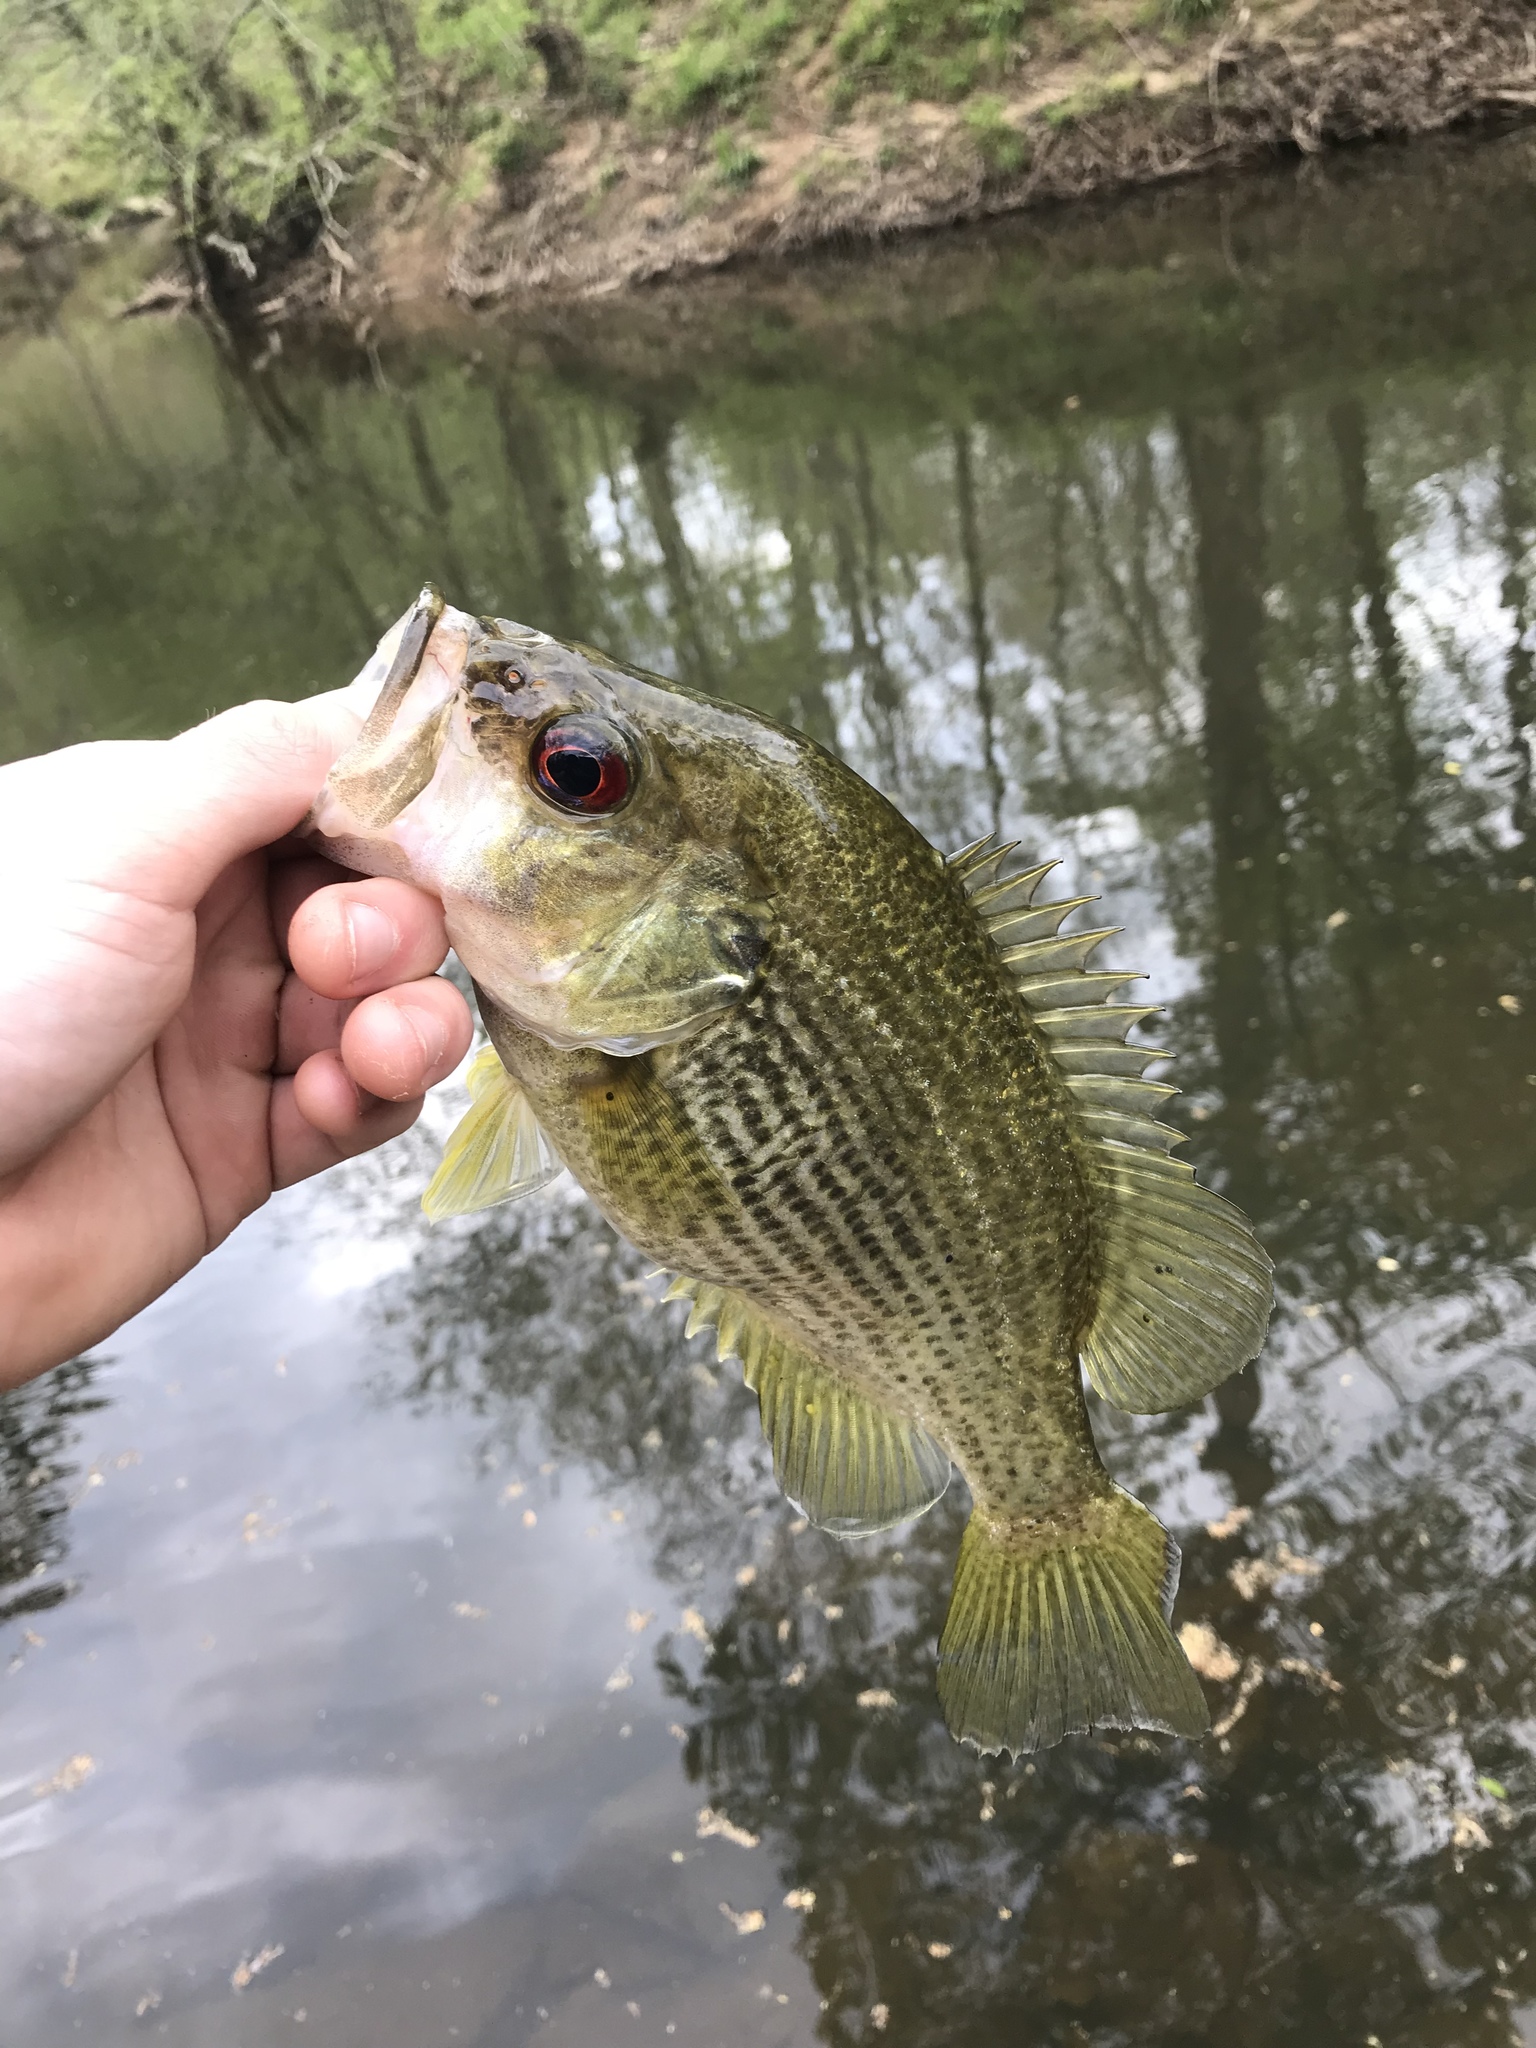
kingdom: Animalia
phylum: Chordata
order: Perciformes
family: Centrarchidae
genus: Ambloplites
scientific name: Ambloplites cavifrons
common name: Roanoke bass
